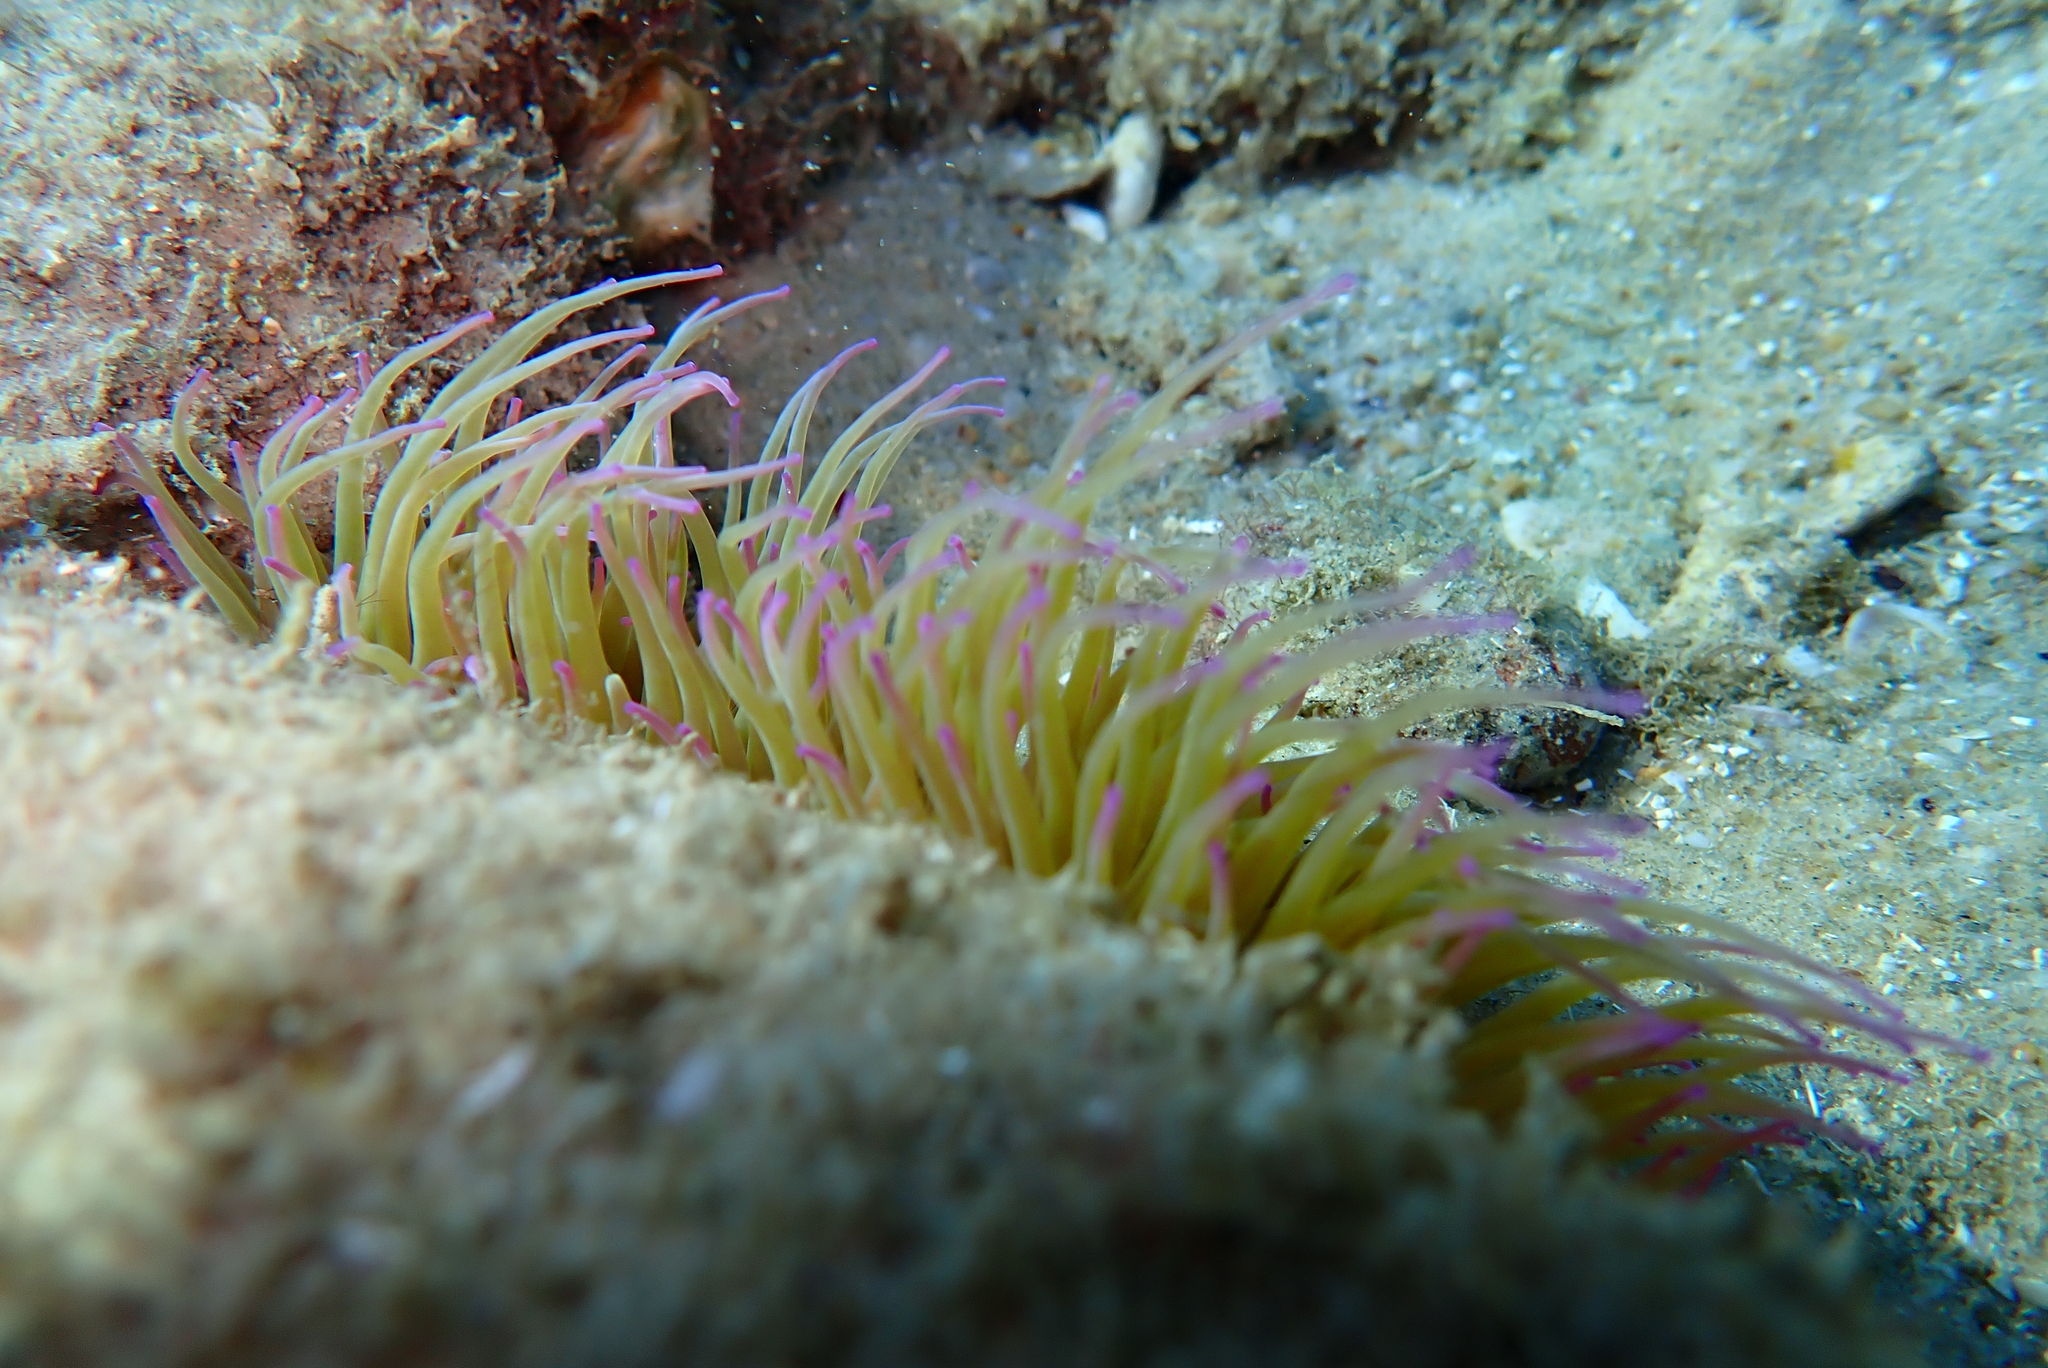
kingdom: Animalia
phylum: Cnidaria
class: Anthozoa
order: Actiniaria
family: Actiniidae
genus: Anemonia
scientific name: Anemonia viridis
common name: Snakelocks anemone
